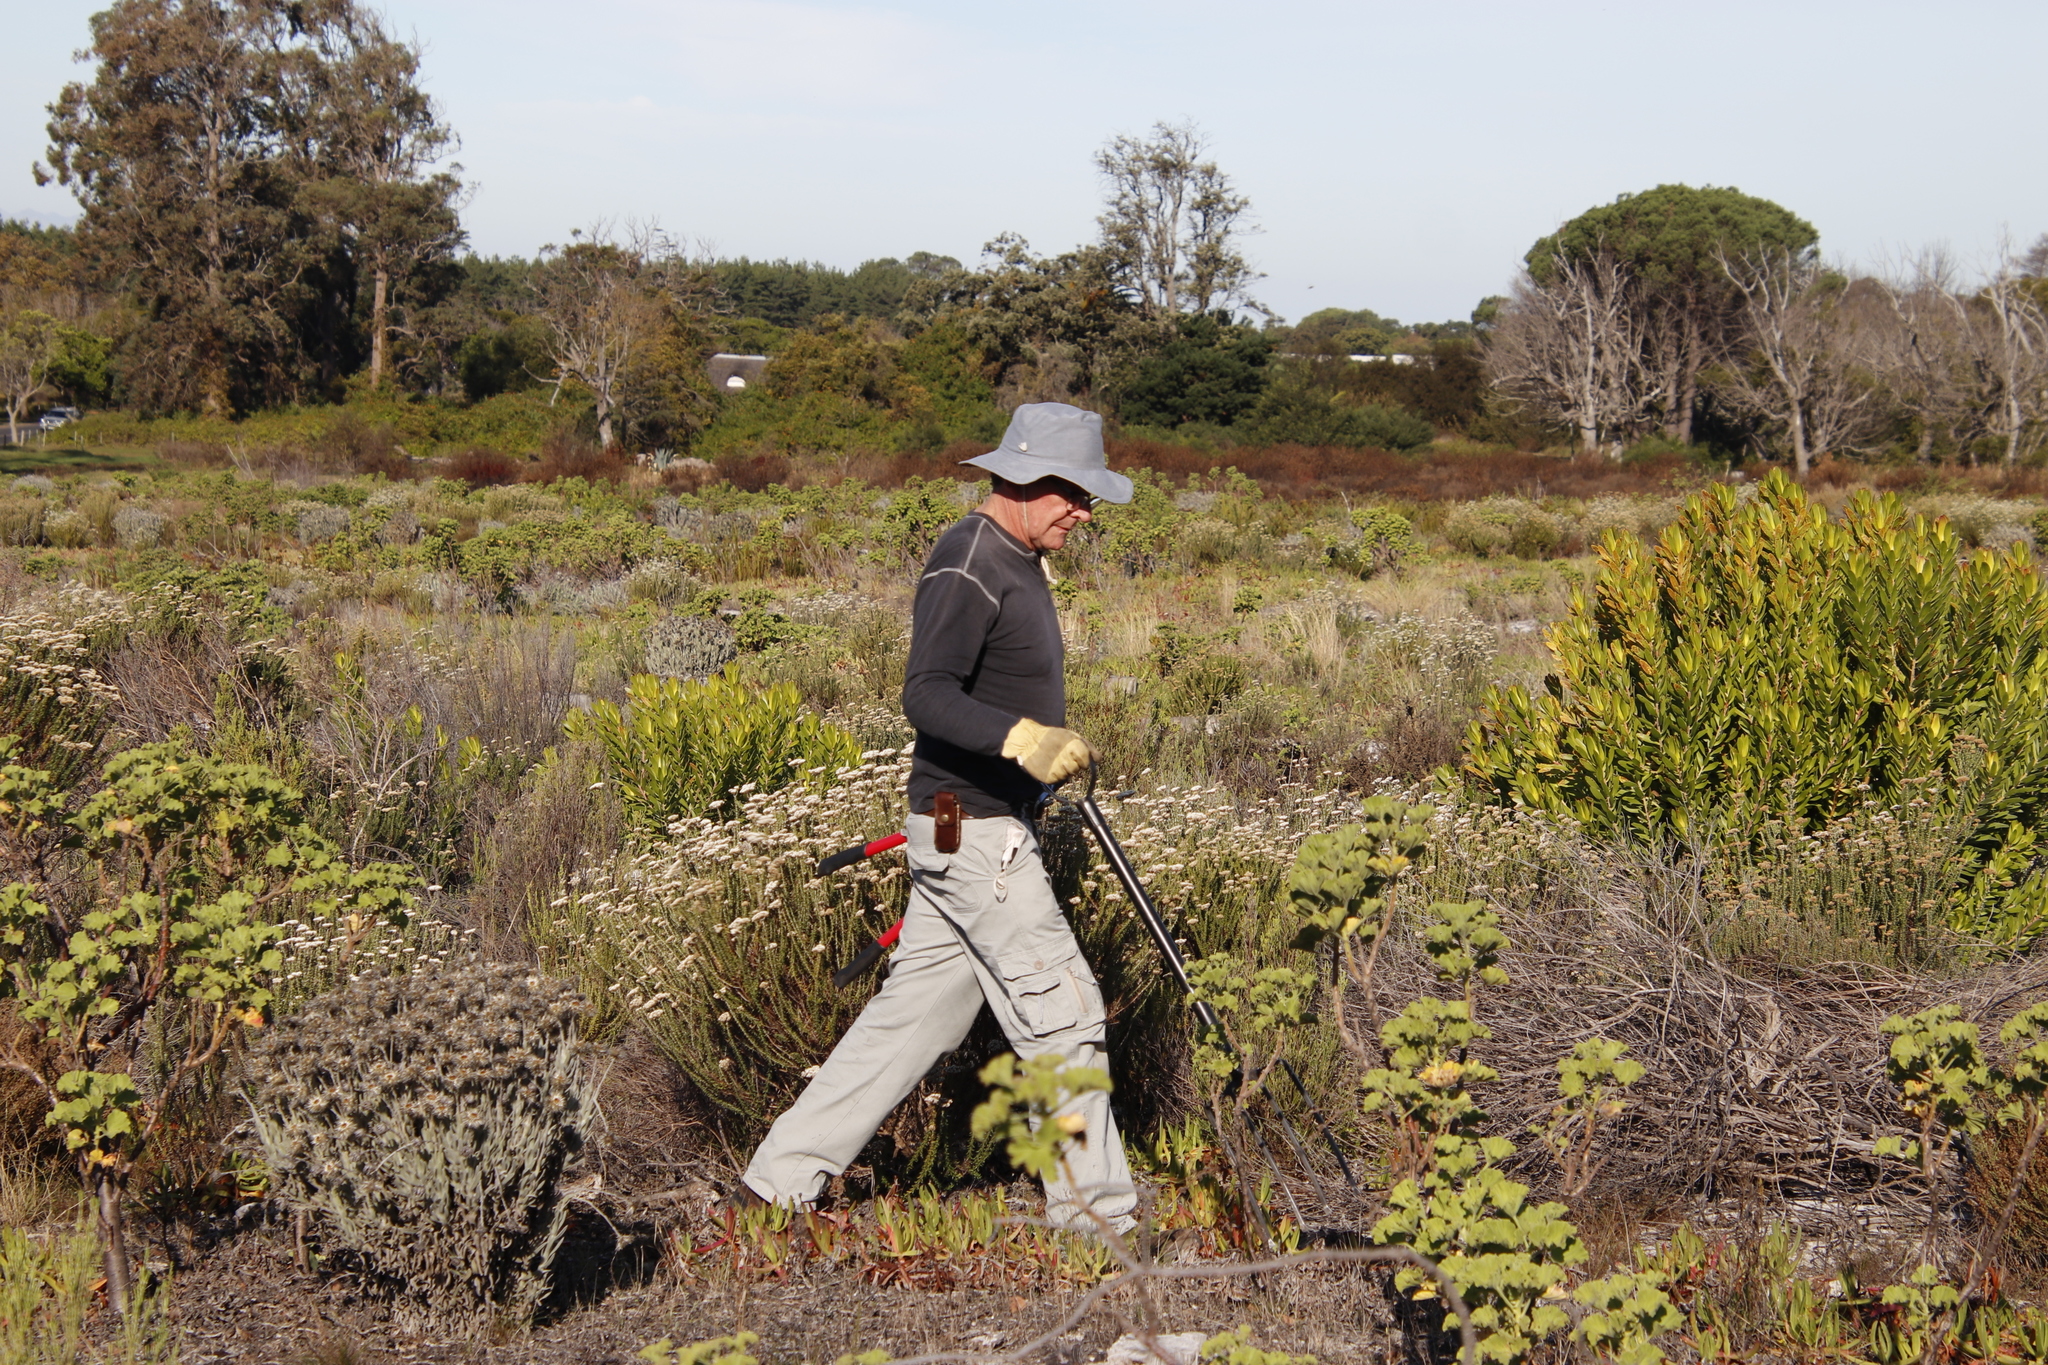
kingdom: Plantae
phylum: Tracheophyta
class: Magnoliopsida
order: Geraniales
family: Geraniaceae
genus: Pelargonium
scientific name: Pelargonium cucullatum
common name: Tree pelargonium
